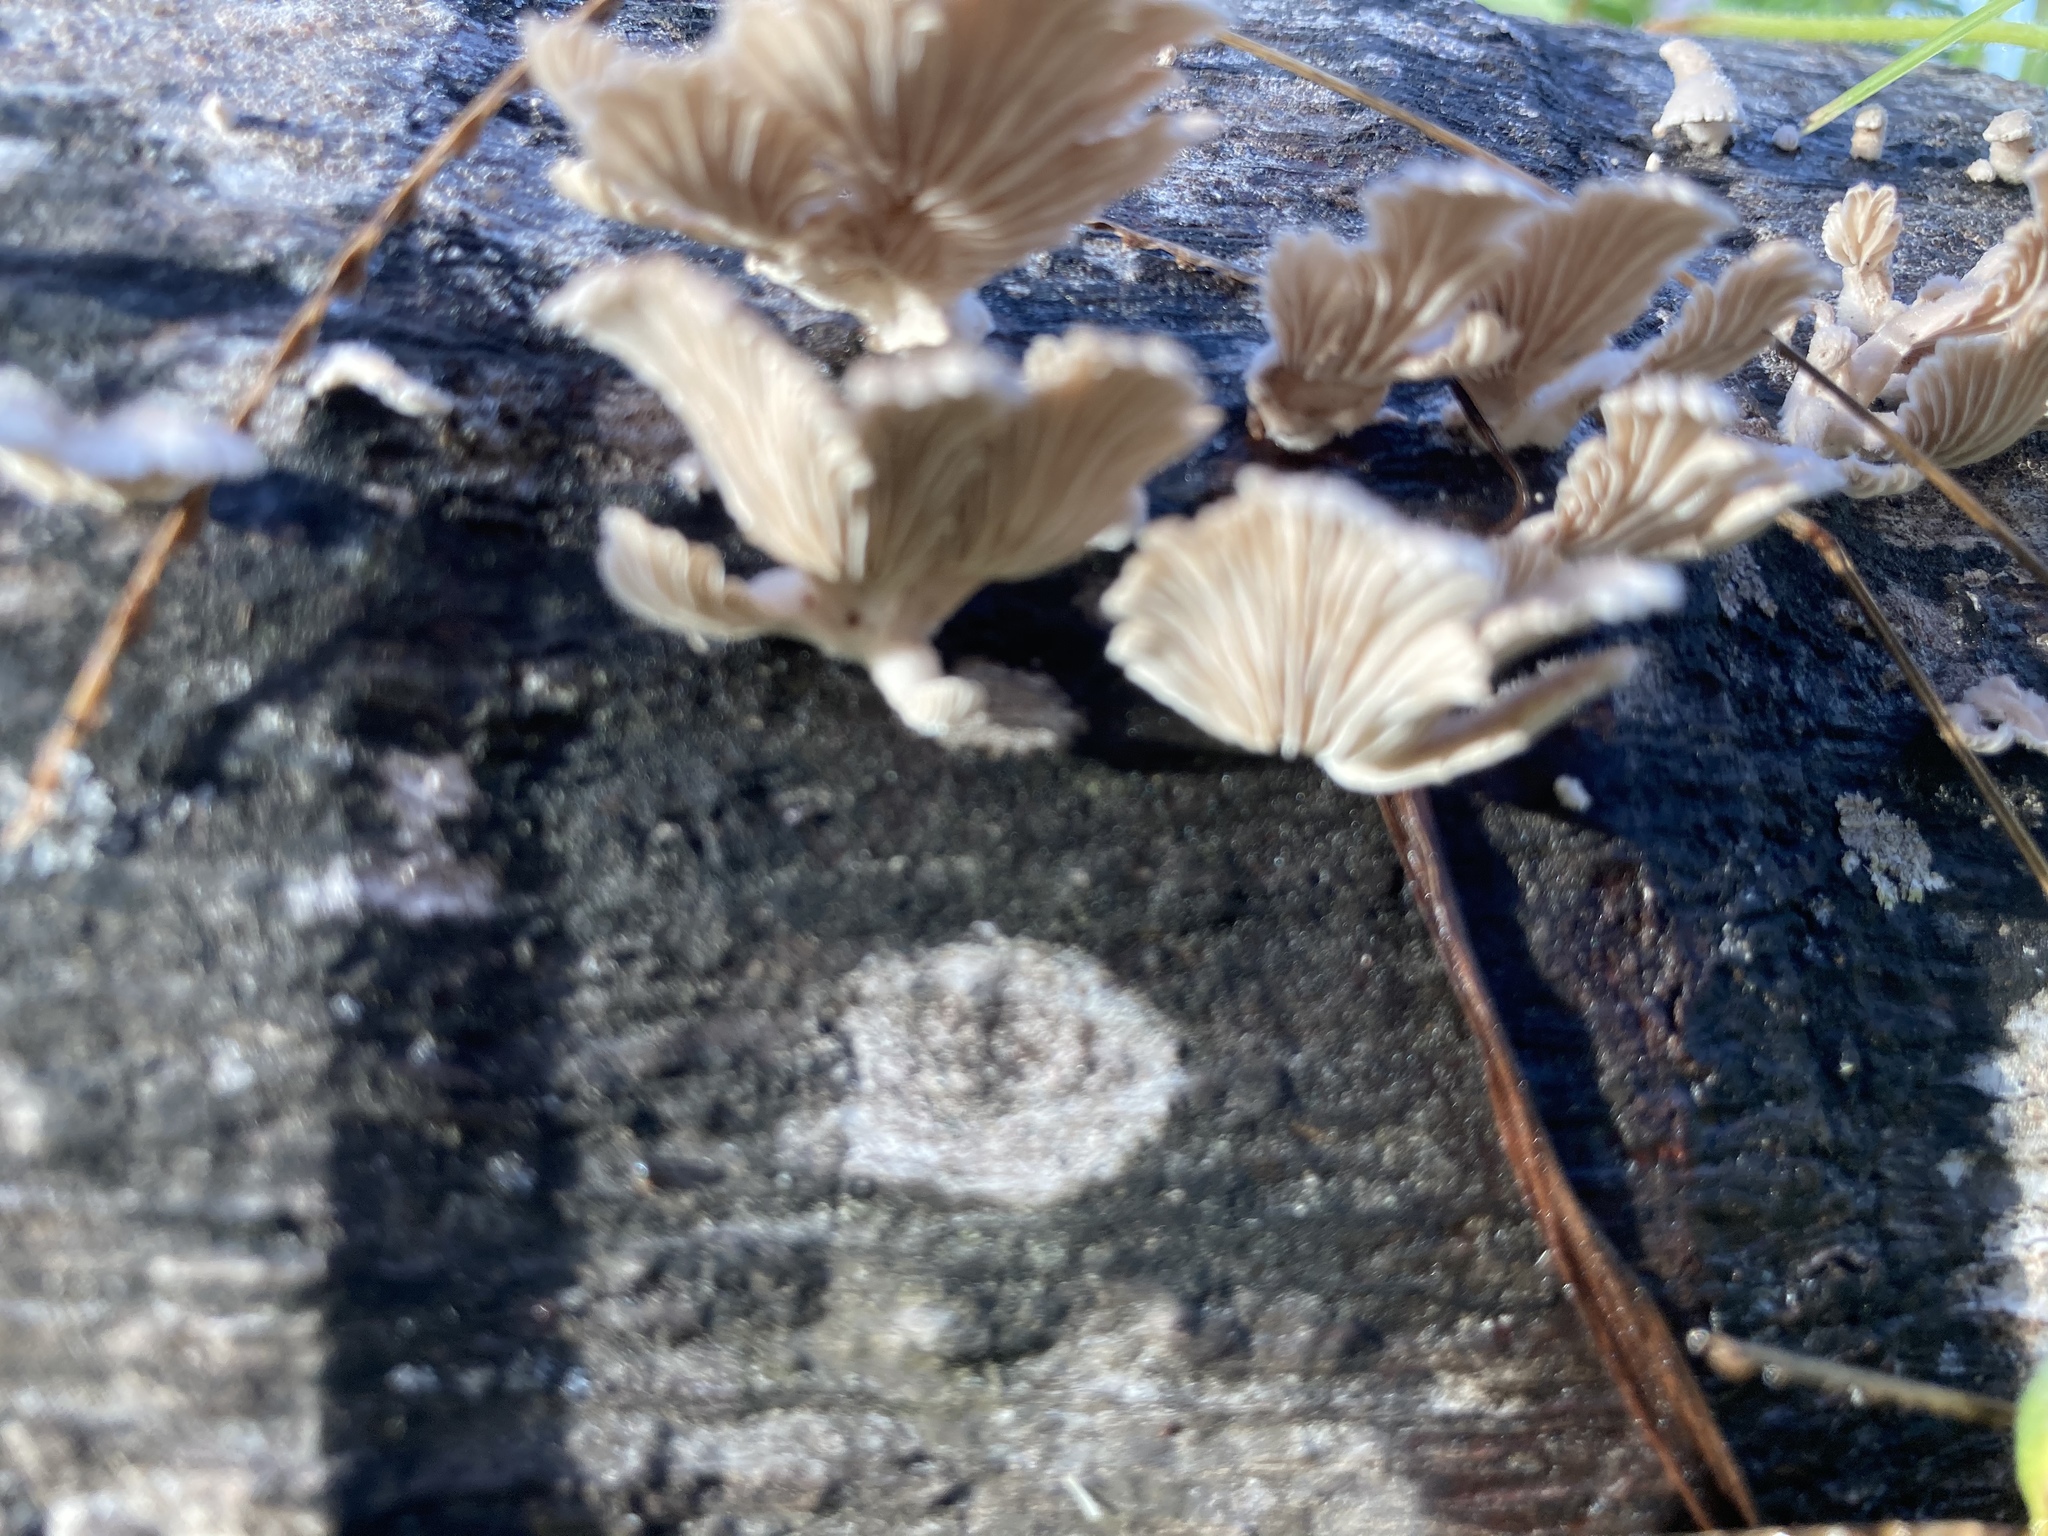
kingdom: Fungi
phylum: Basidiomycota
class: Agaricomycetes
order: Agaricales
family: Schizophyllaceae
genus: Schizophyllum
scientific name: Schizophyllum commune
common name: Common porecrust
